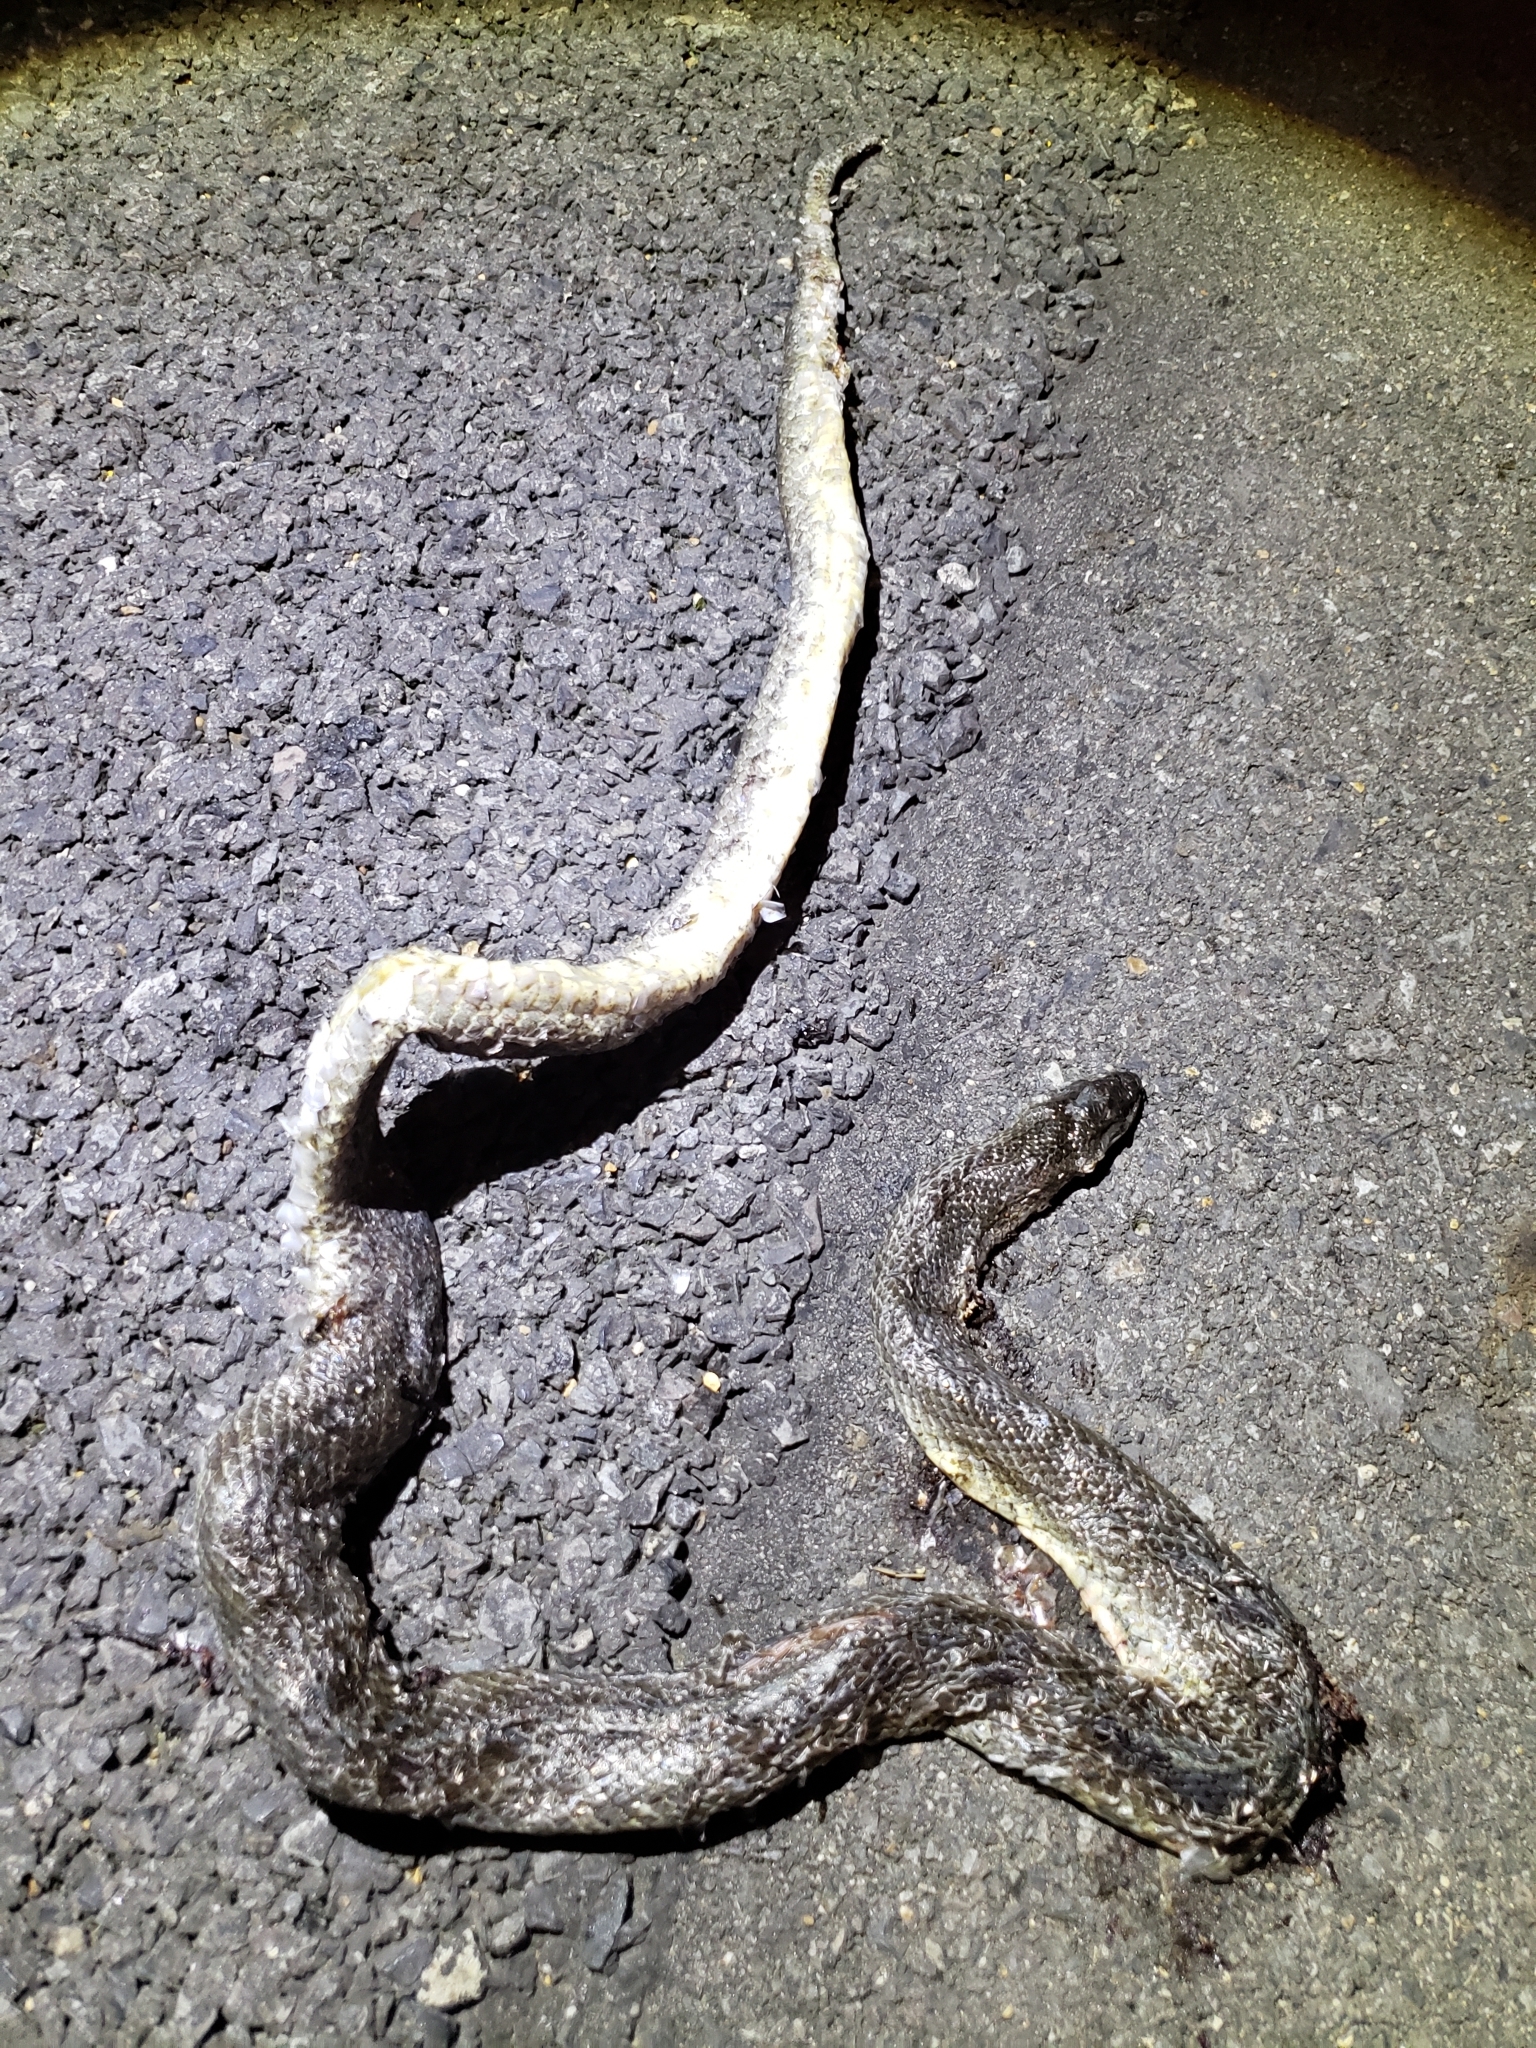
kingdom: Animalia
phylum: Chordata
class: Squamata
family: Colubridae
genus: Lampropeltis
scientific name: Lampropeltis calligaster
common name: Prairie kingsnake
